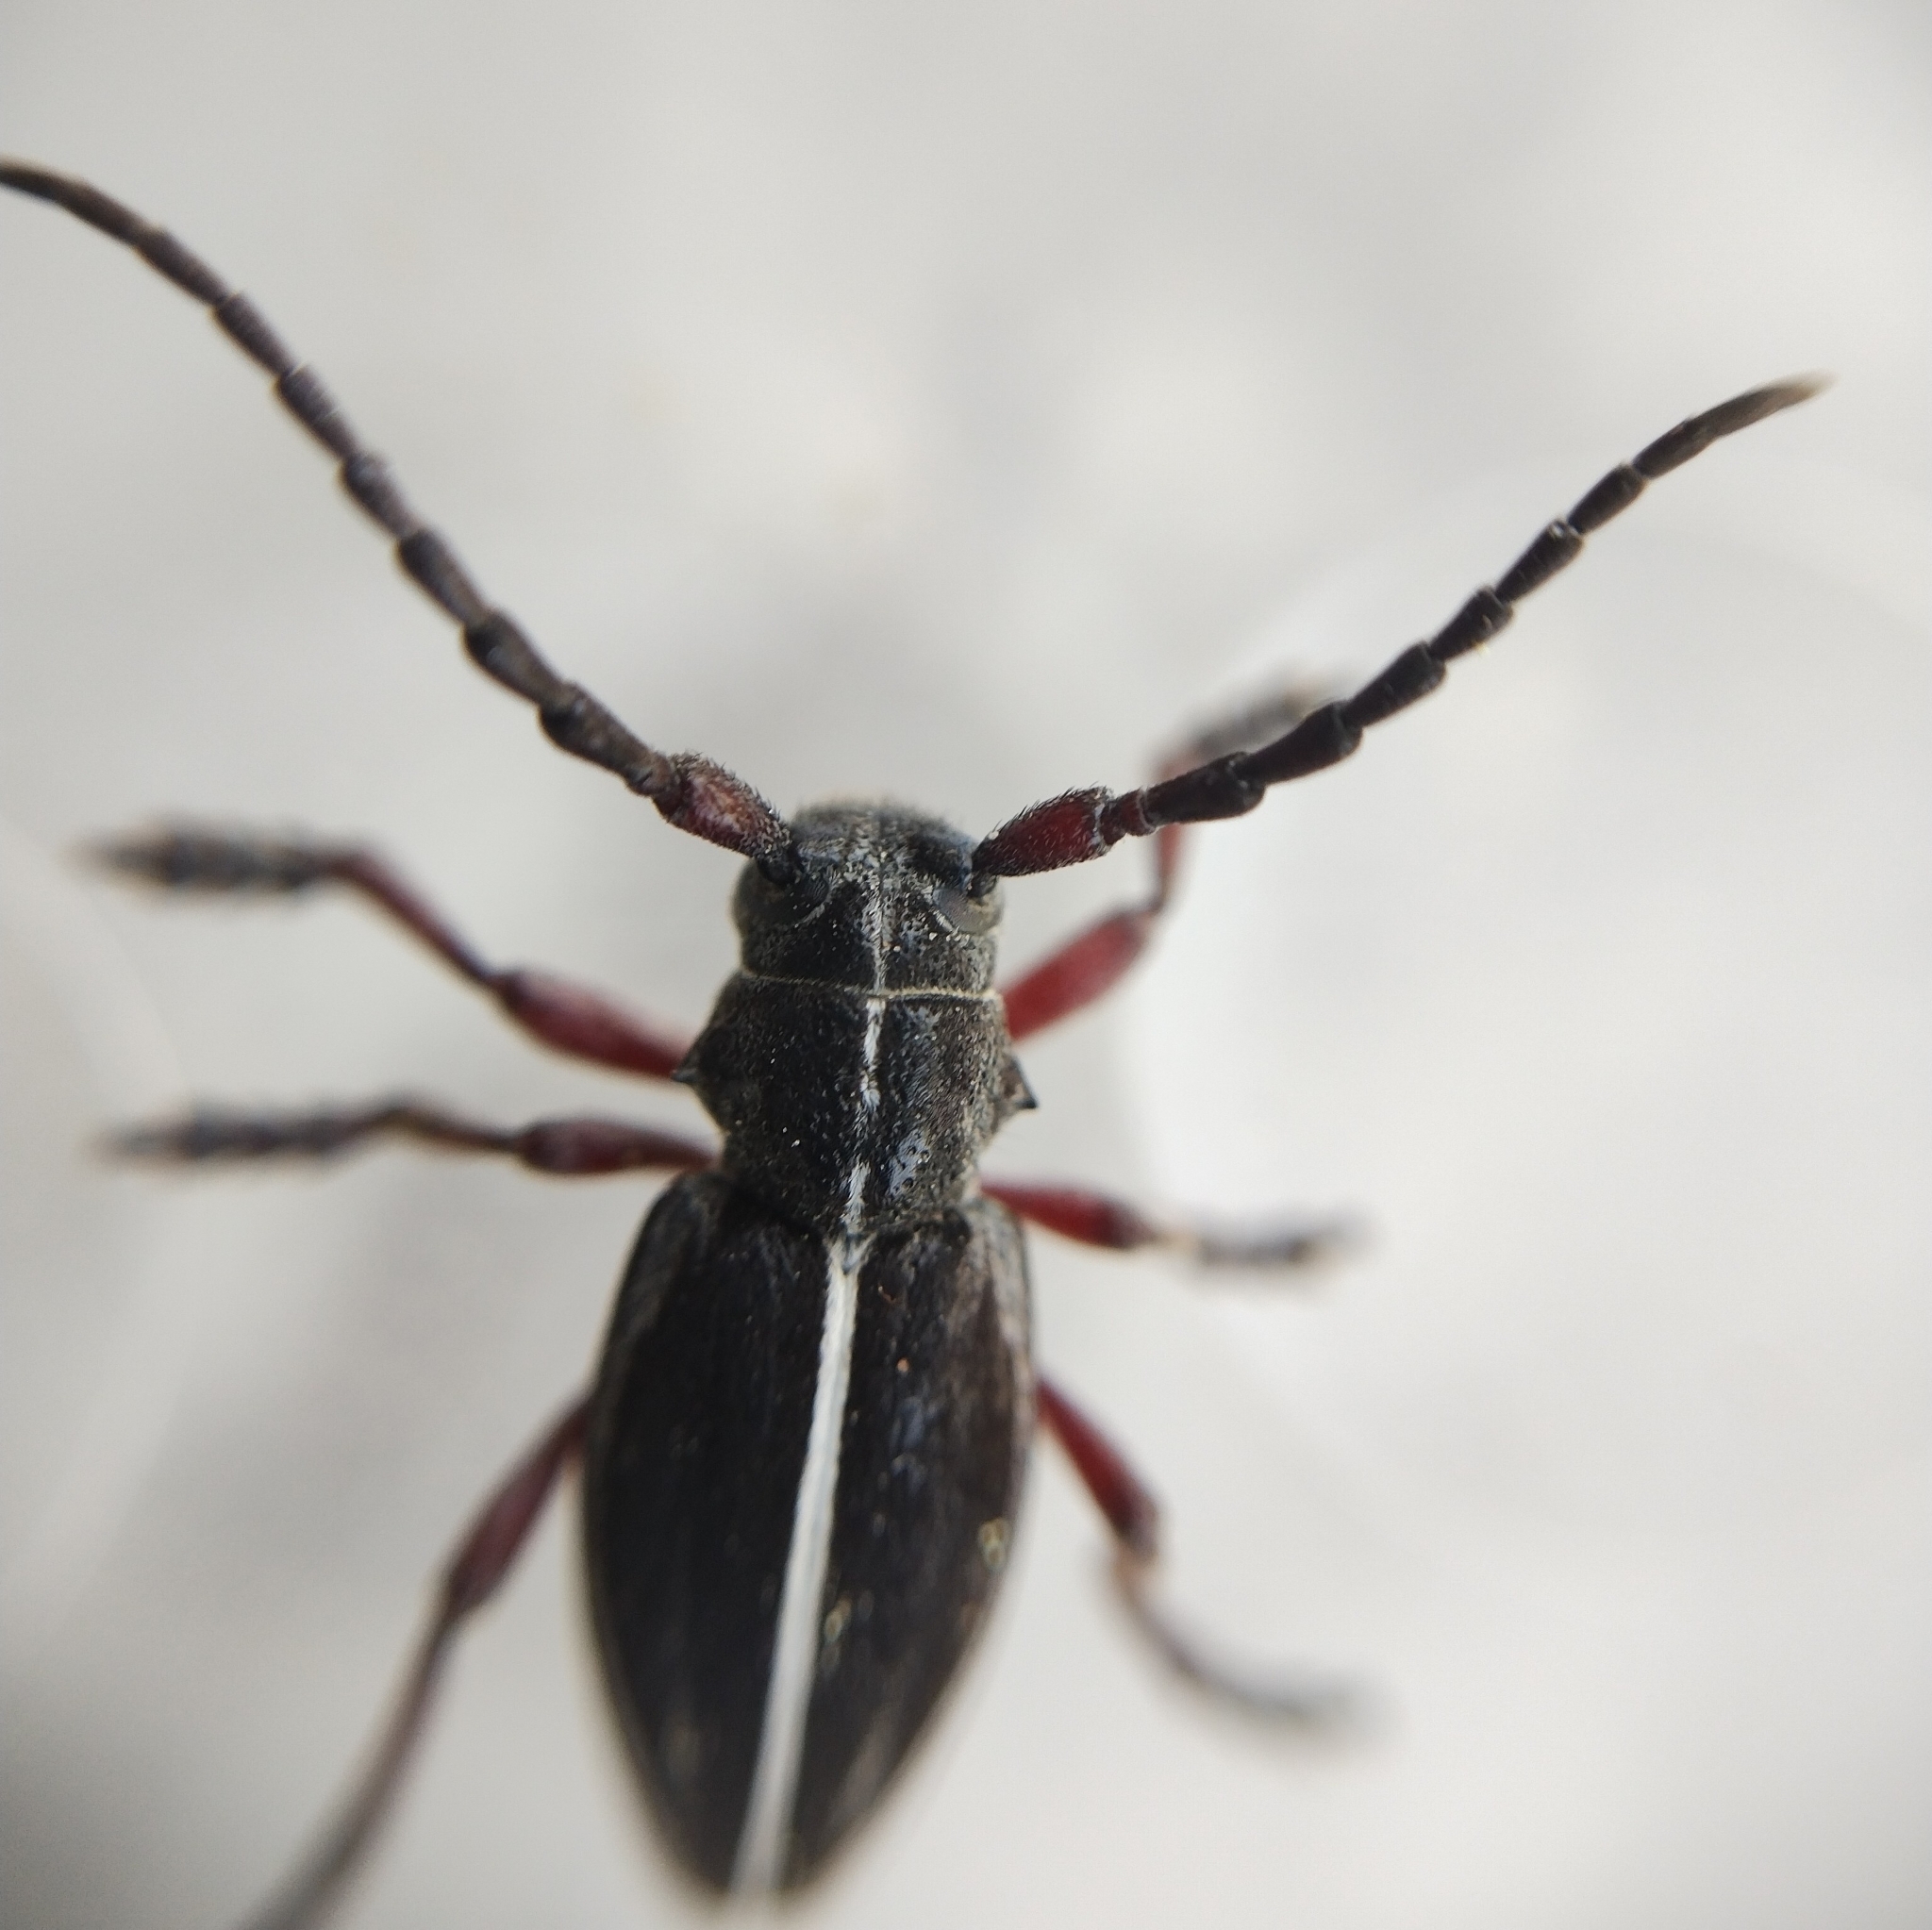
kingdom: Animalia
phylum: Arthropoda
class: Insecta
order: Coleoptera
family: Cerambycidae
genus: Dorcadion
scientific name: Dorcadion tauricum
